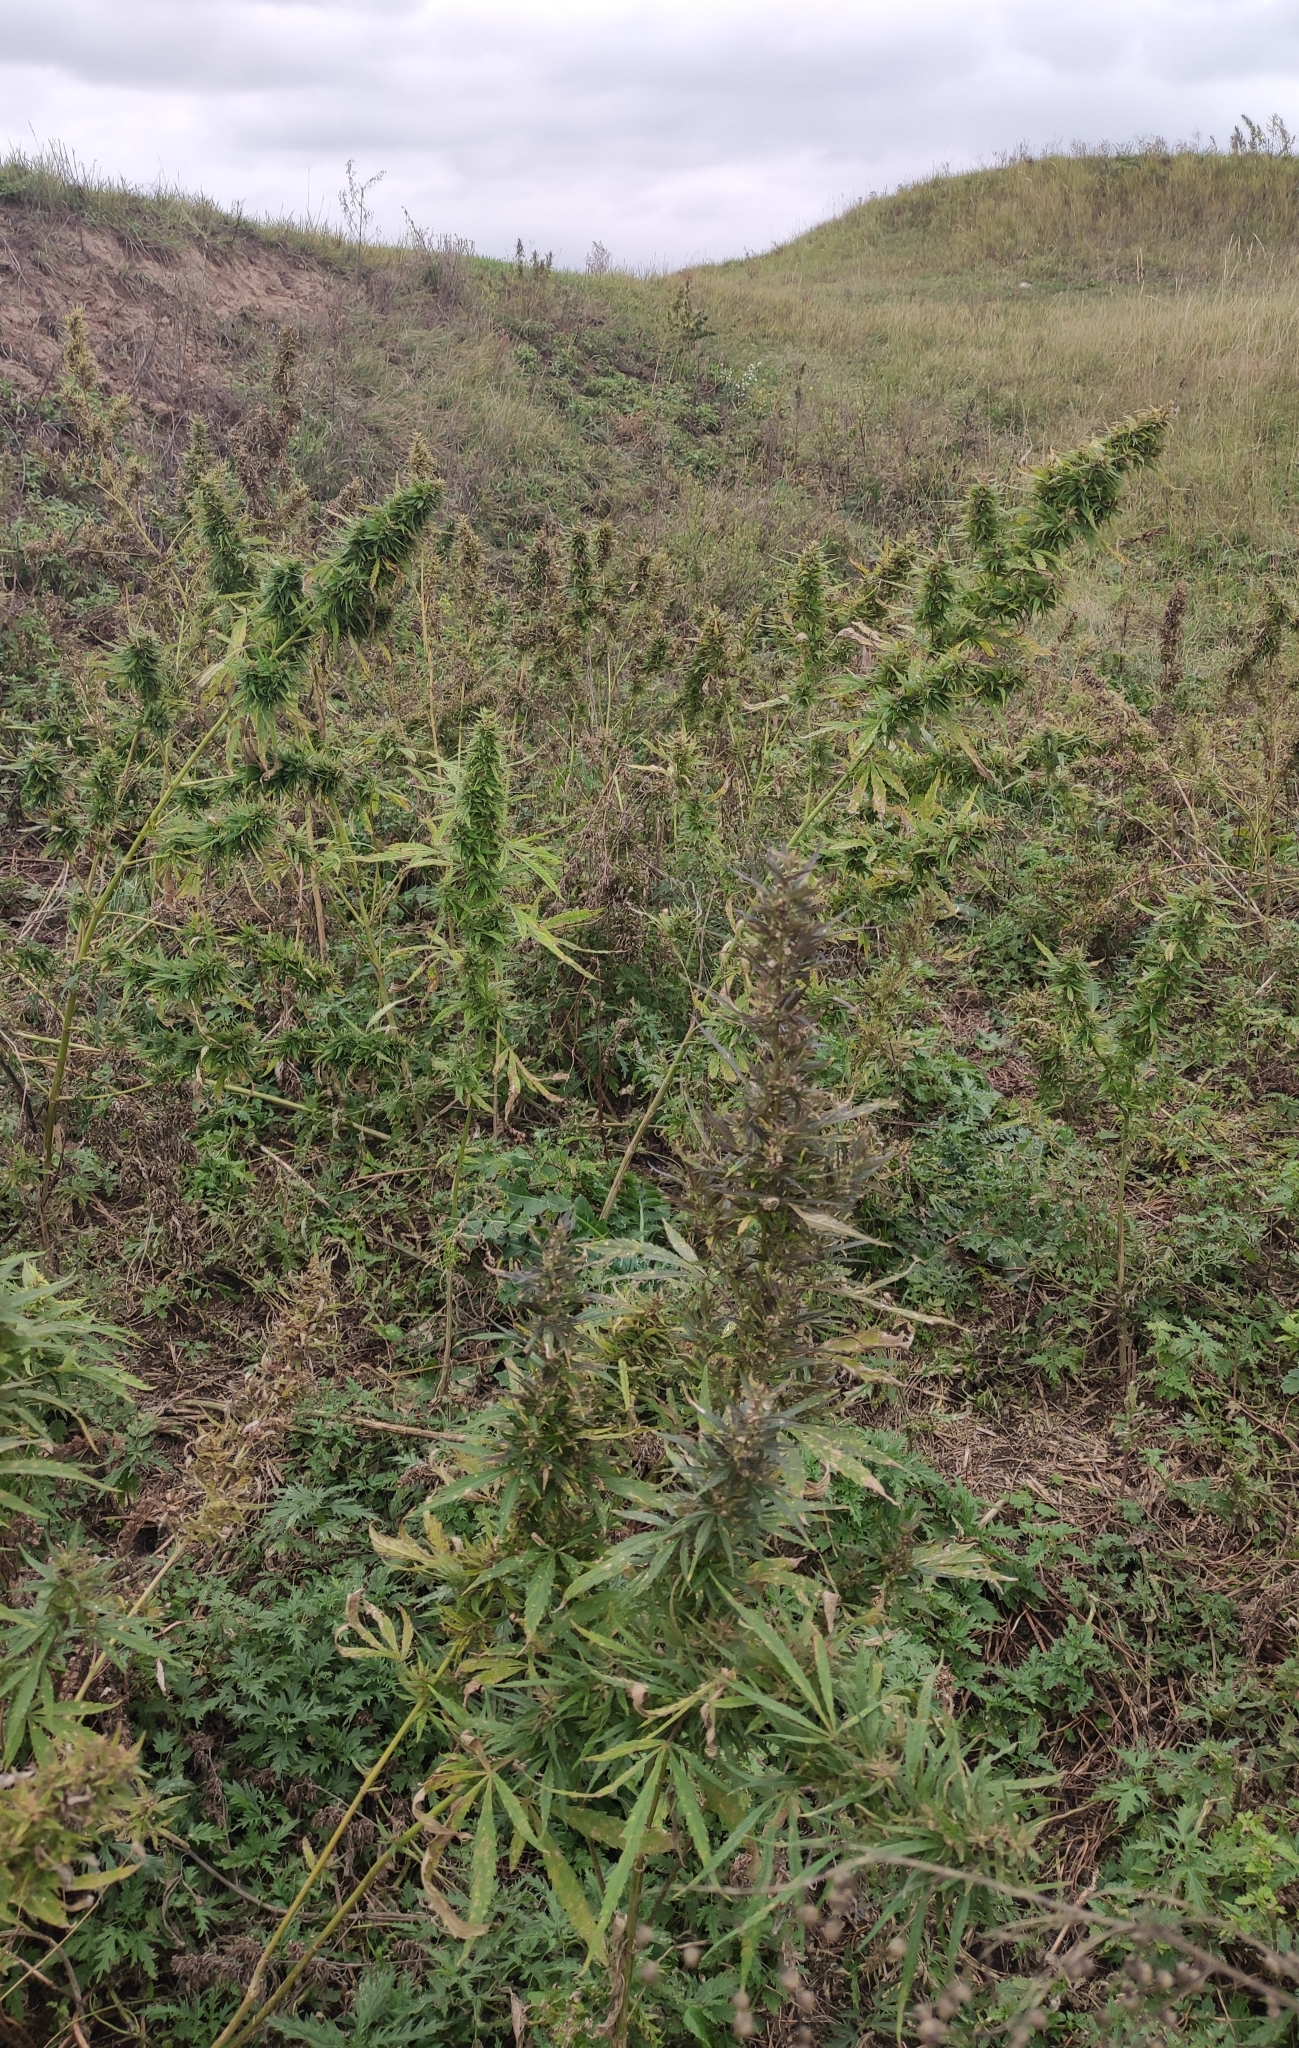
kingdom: Plantae
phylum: Tracheophyta
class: Magnoliopsida
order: Rosales
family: Cannabaceae
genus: Cannabis
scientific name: Cannabis sativa
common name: Hemp
